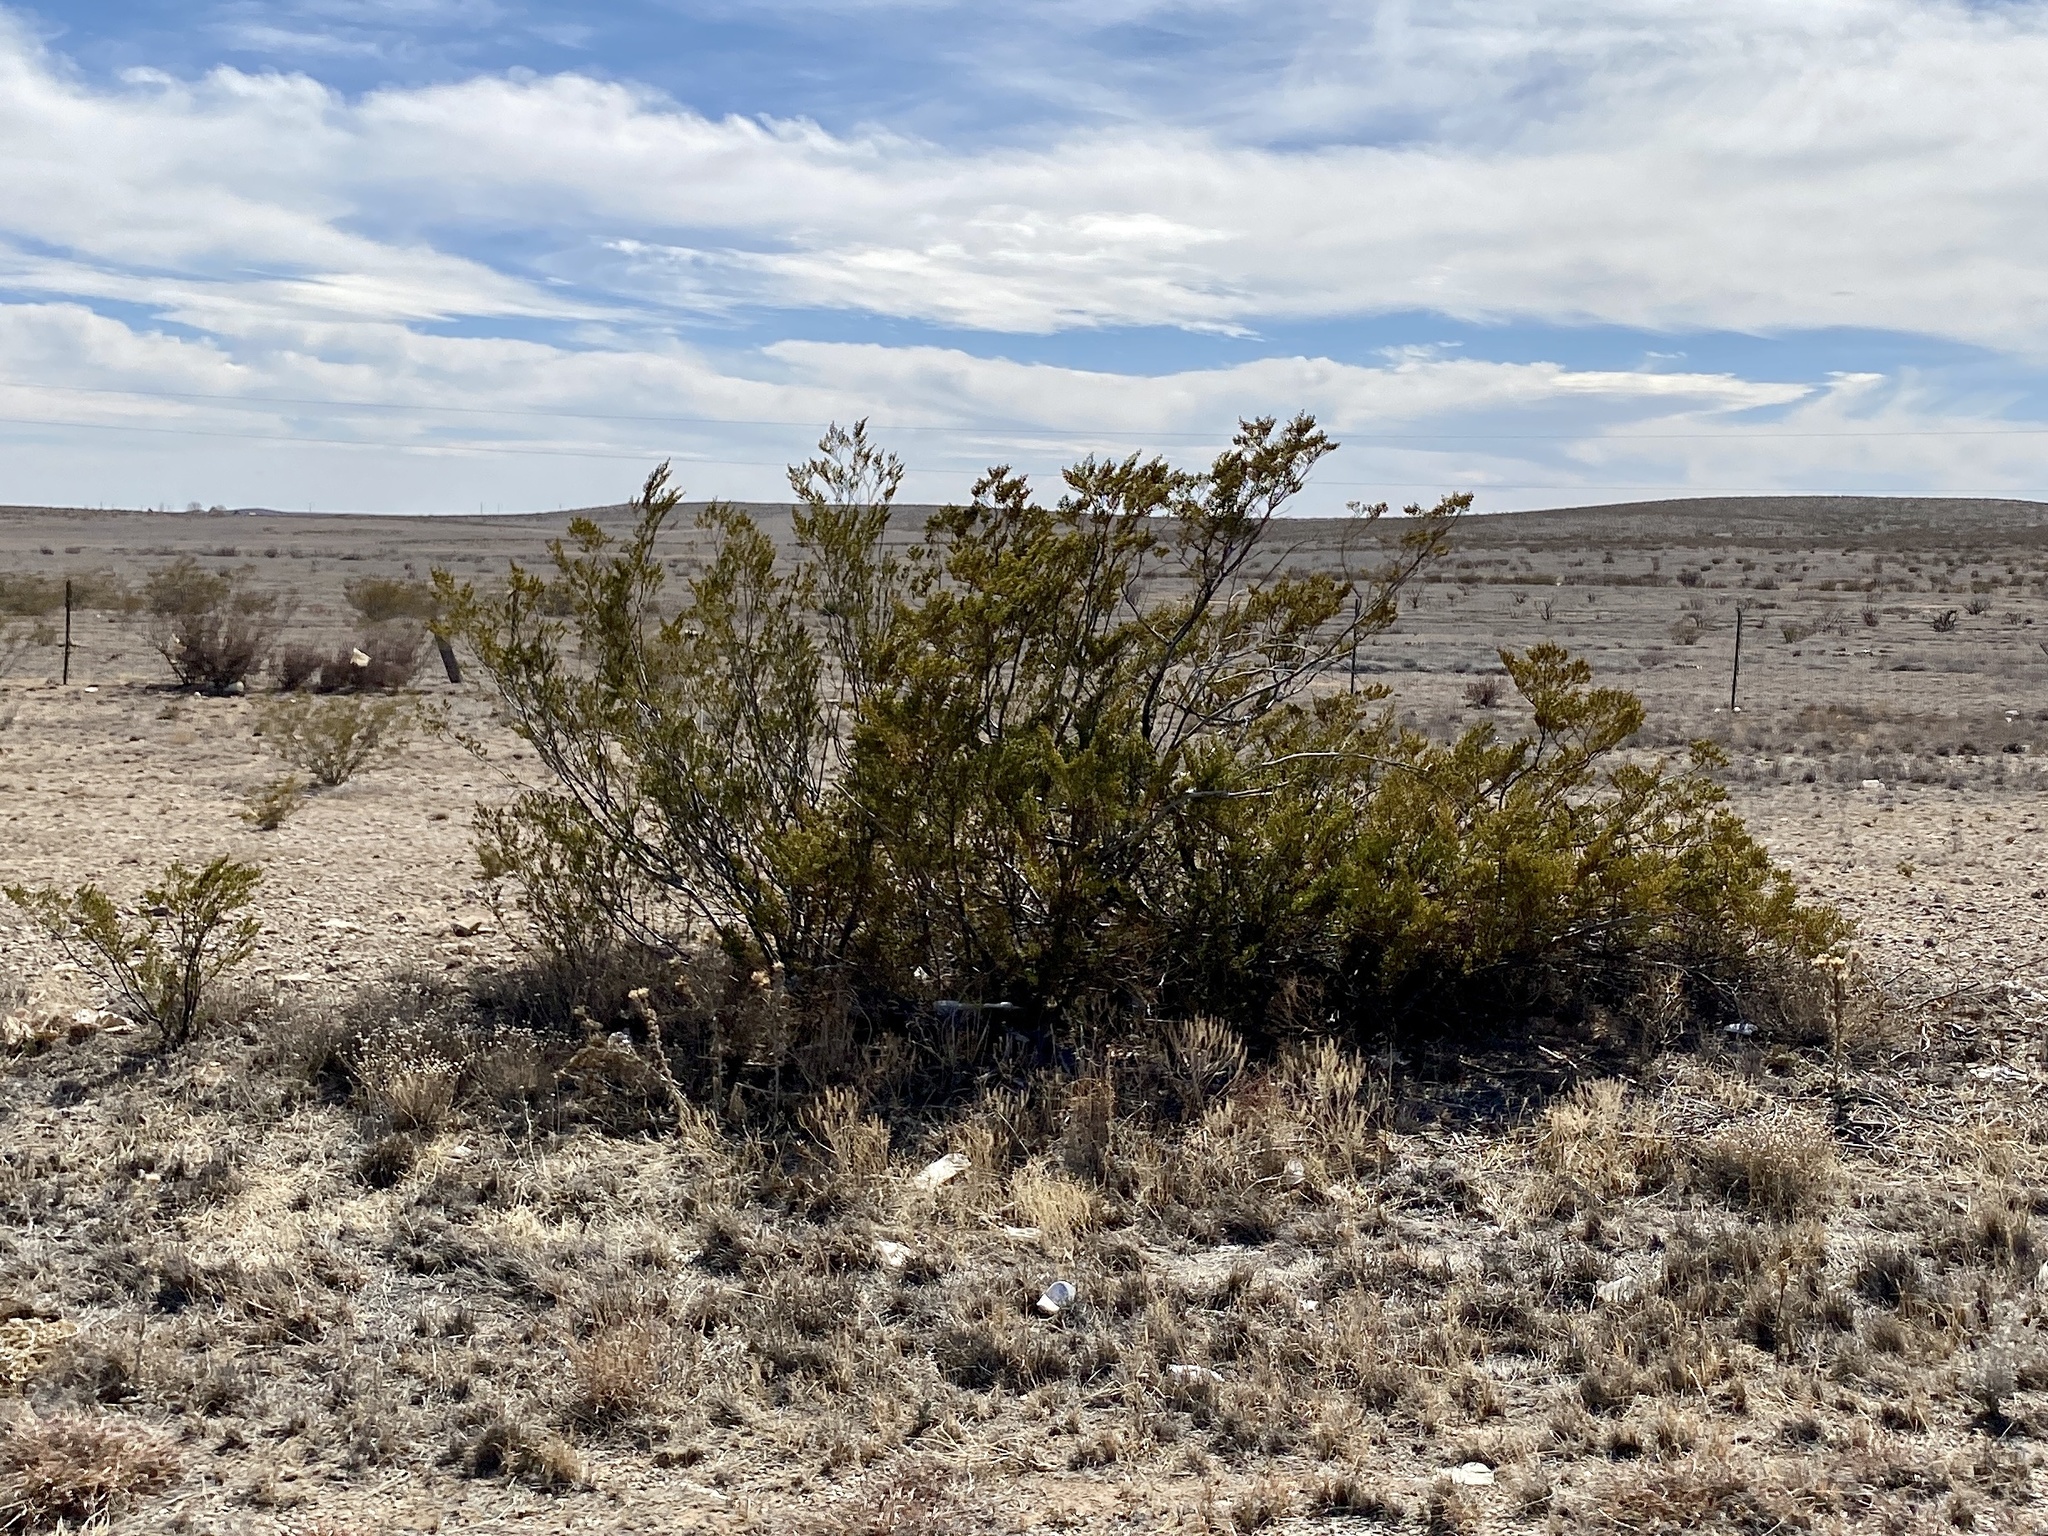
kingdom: Plantae
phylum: Tracheophyta
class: Magnoliopsida
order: Zygophyllales
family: Zygophyllaceae
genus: Larrea
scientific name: Larrea tridentata
